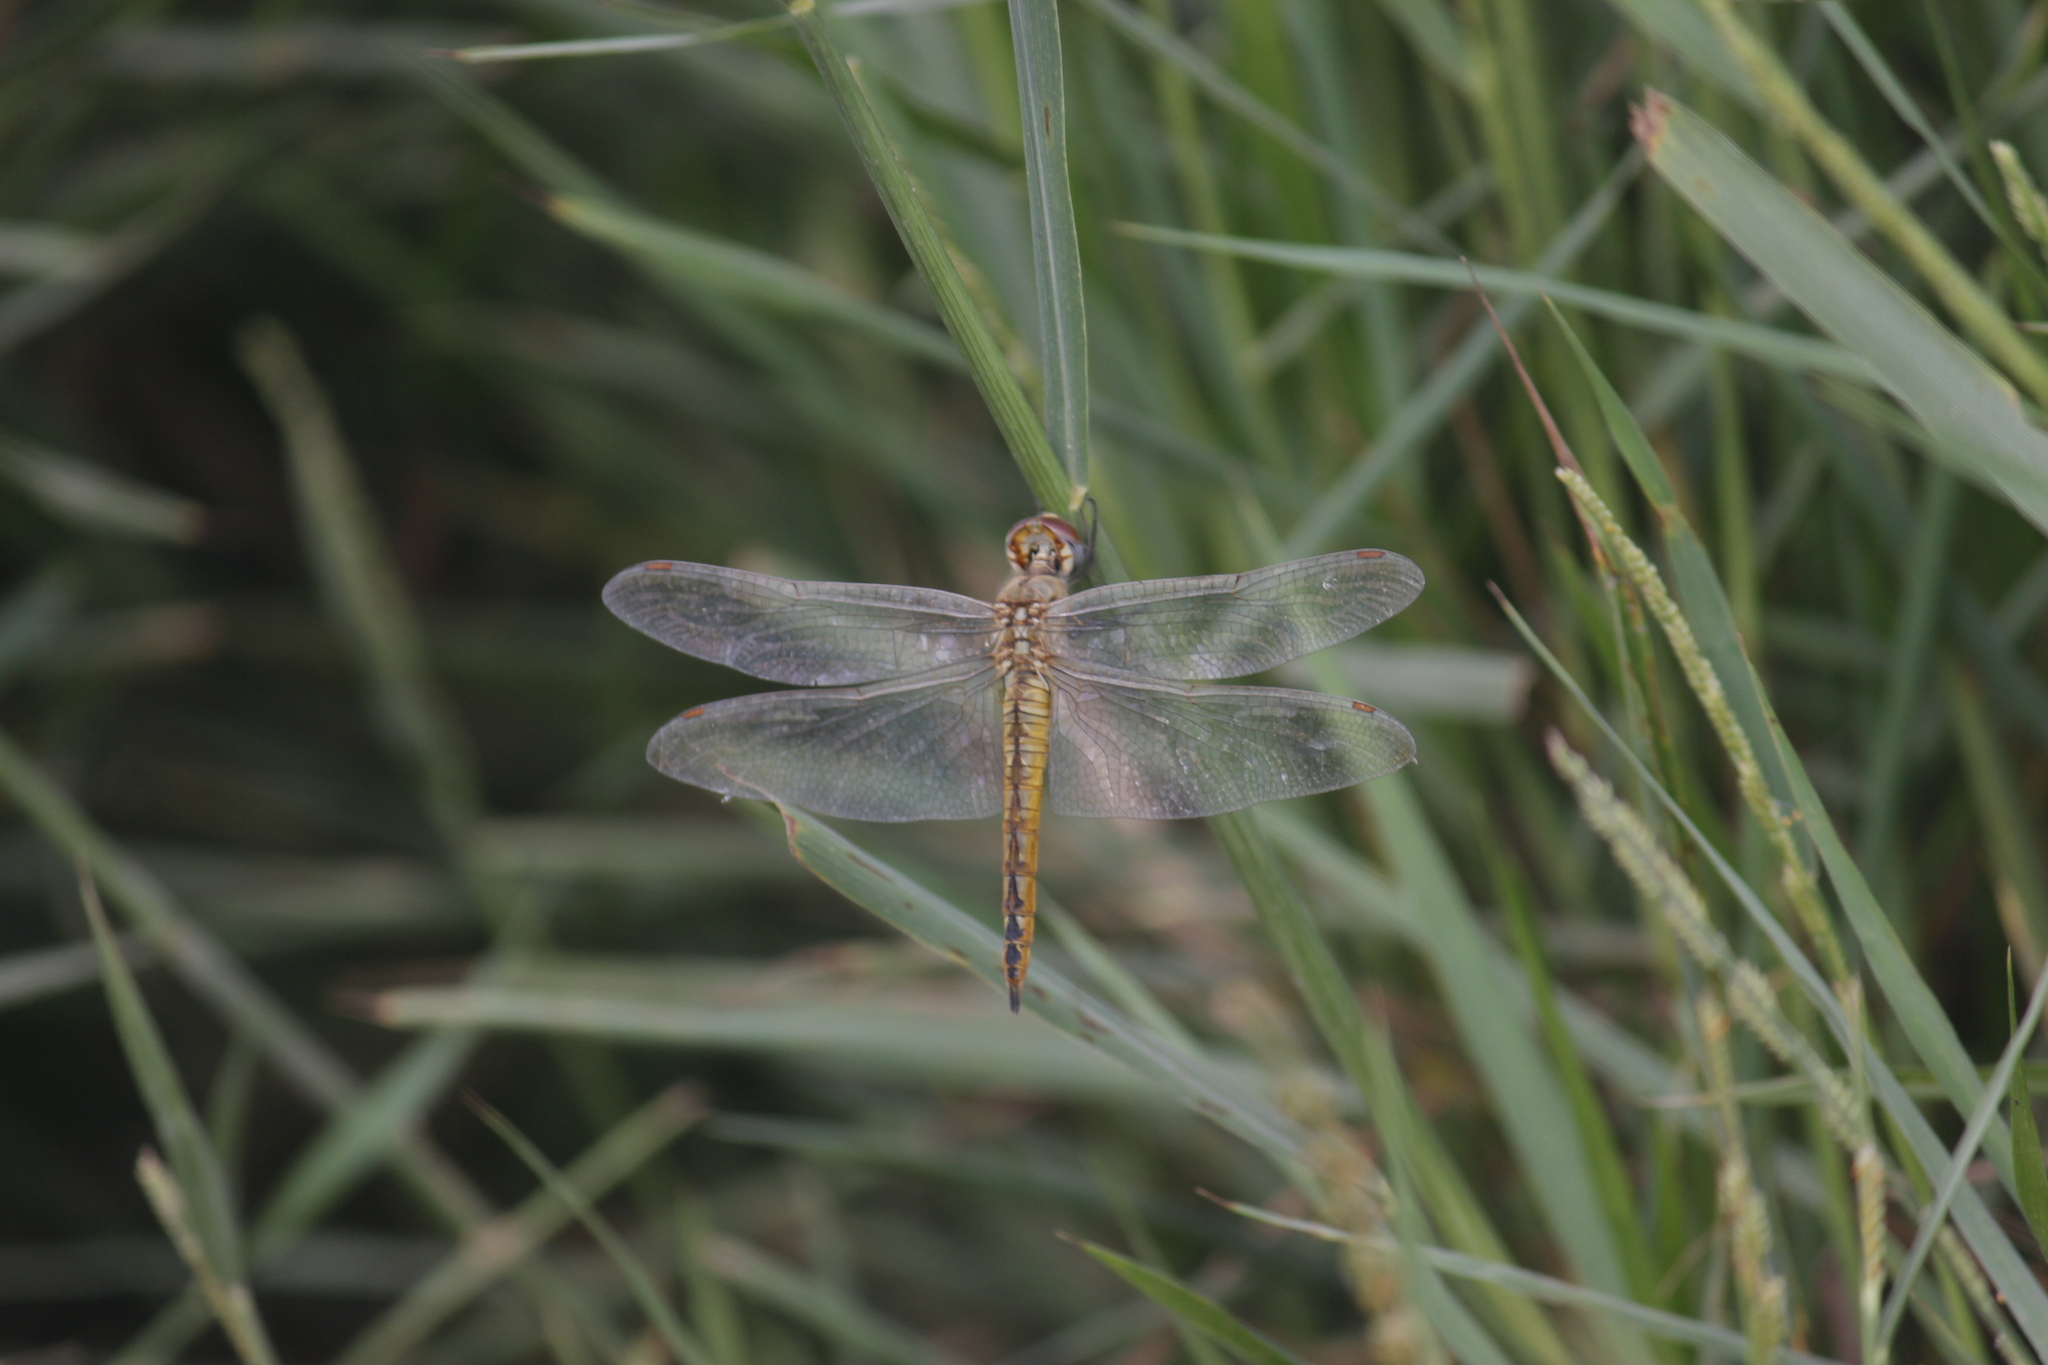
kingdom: Animalia
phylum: Arthropoda
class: Insecta
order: Odonata
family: Libellulidae
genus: Pantala
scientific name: Pantala flavescens
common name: Wandering glider
